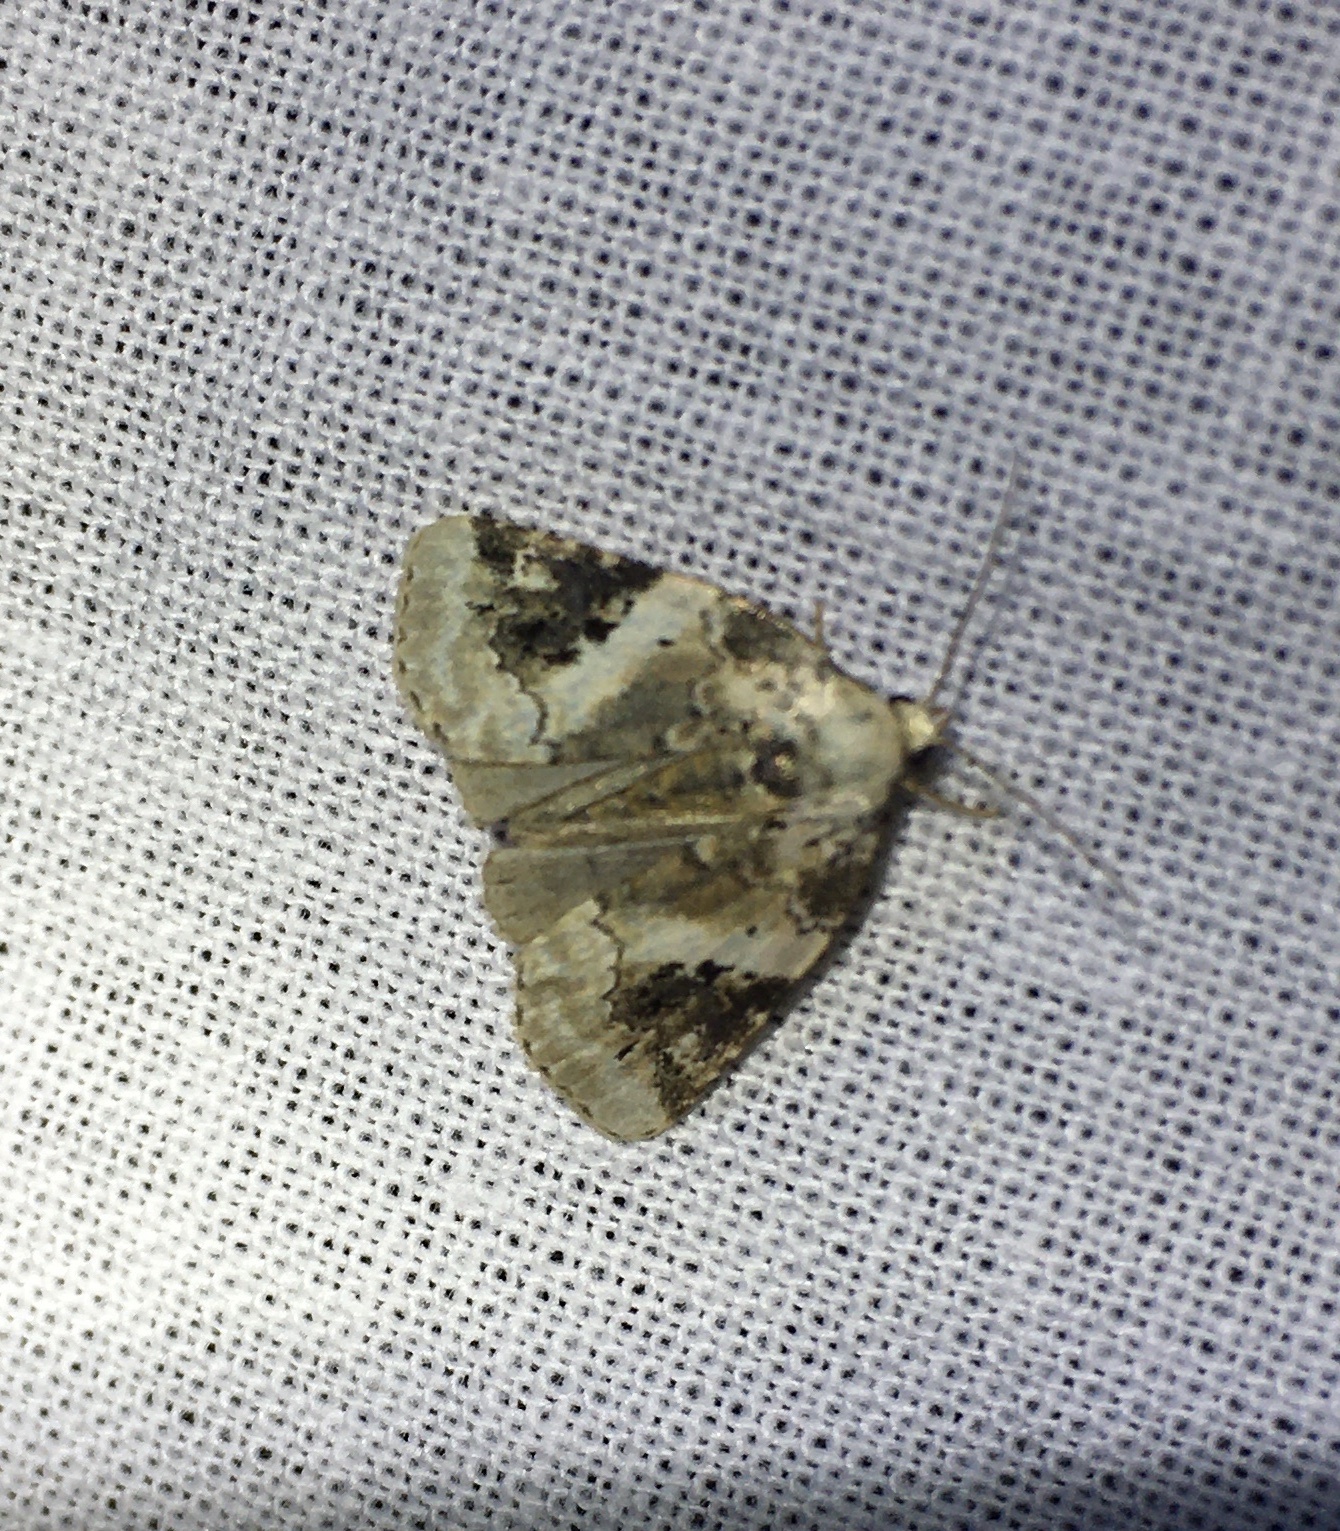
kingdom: Animalia
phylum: Arthropoda
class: Insecta
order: Lepidoptera
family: Noctuidae
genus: Pseudeustrotia
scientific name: Pseudeustrotia candidula
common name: Shining marbled
